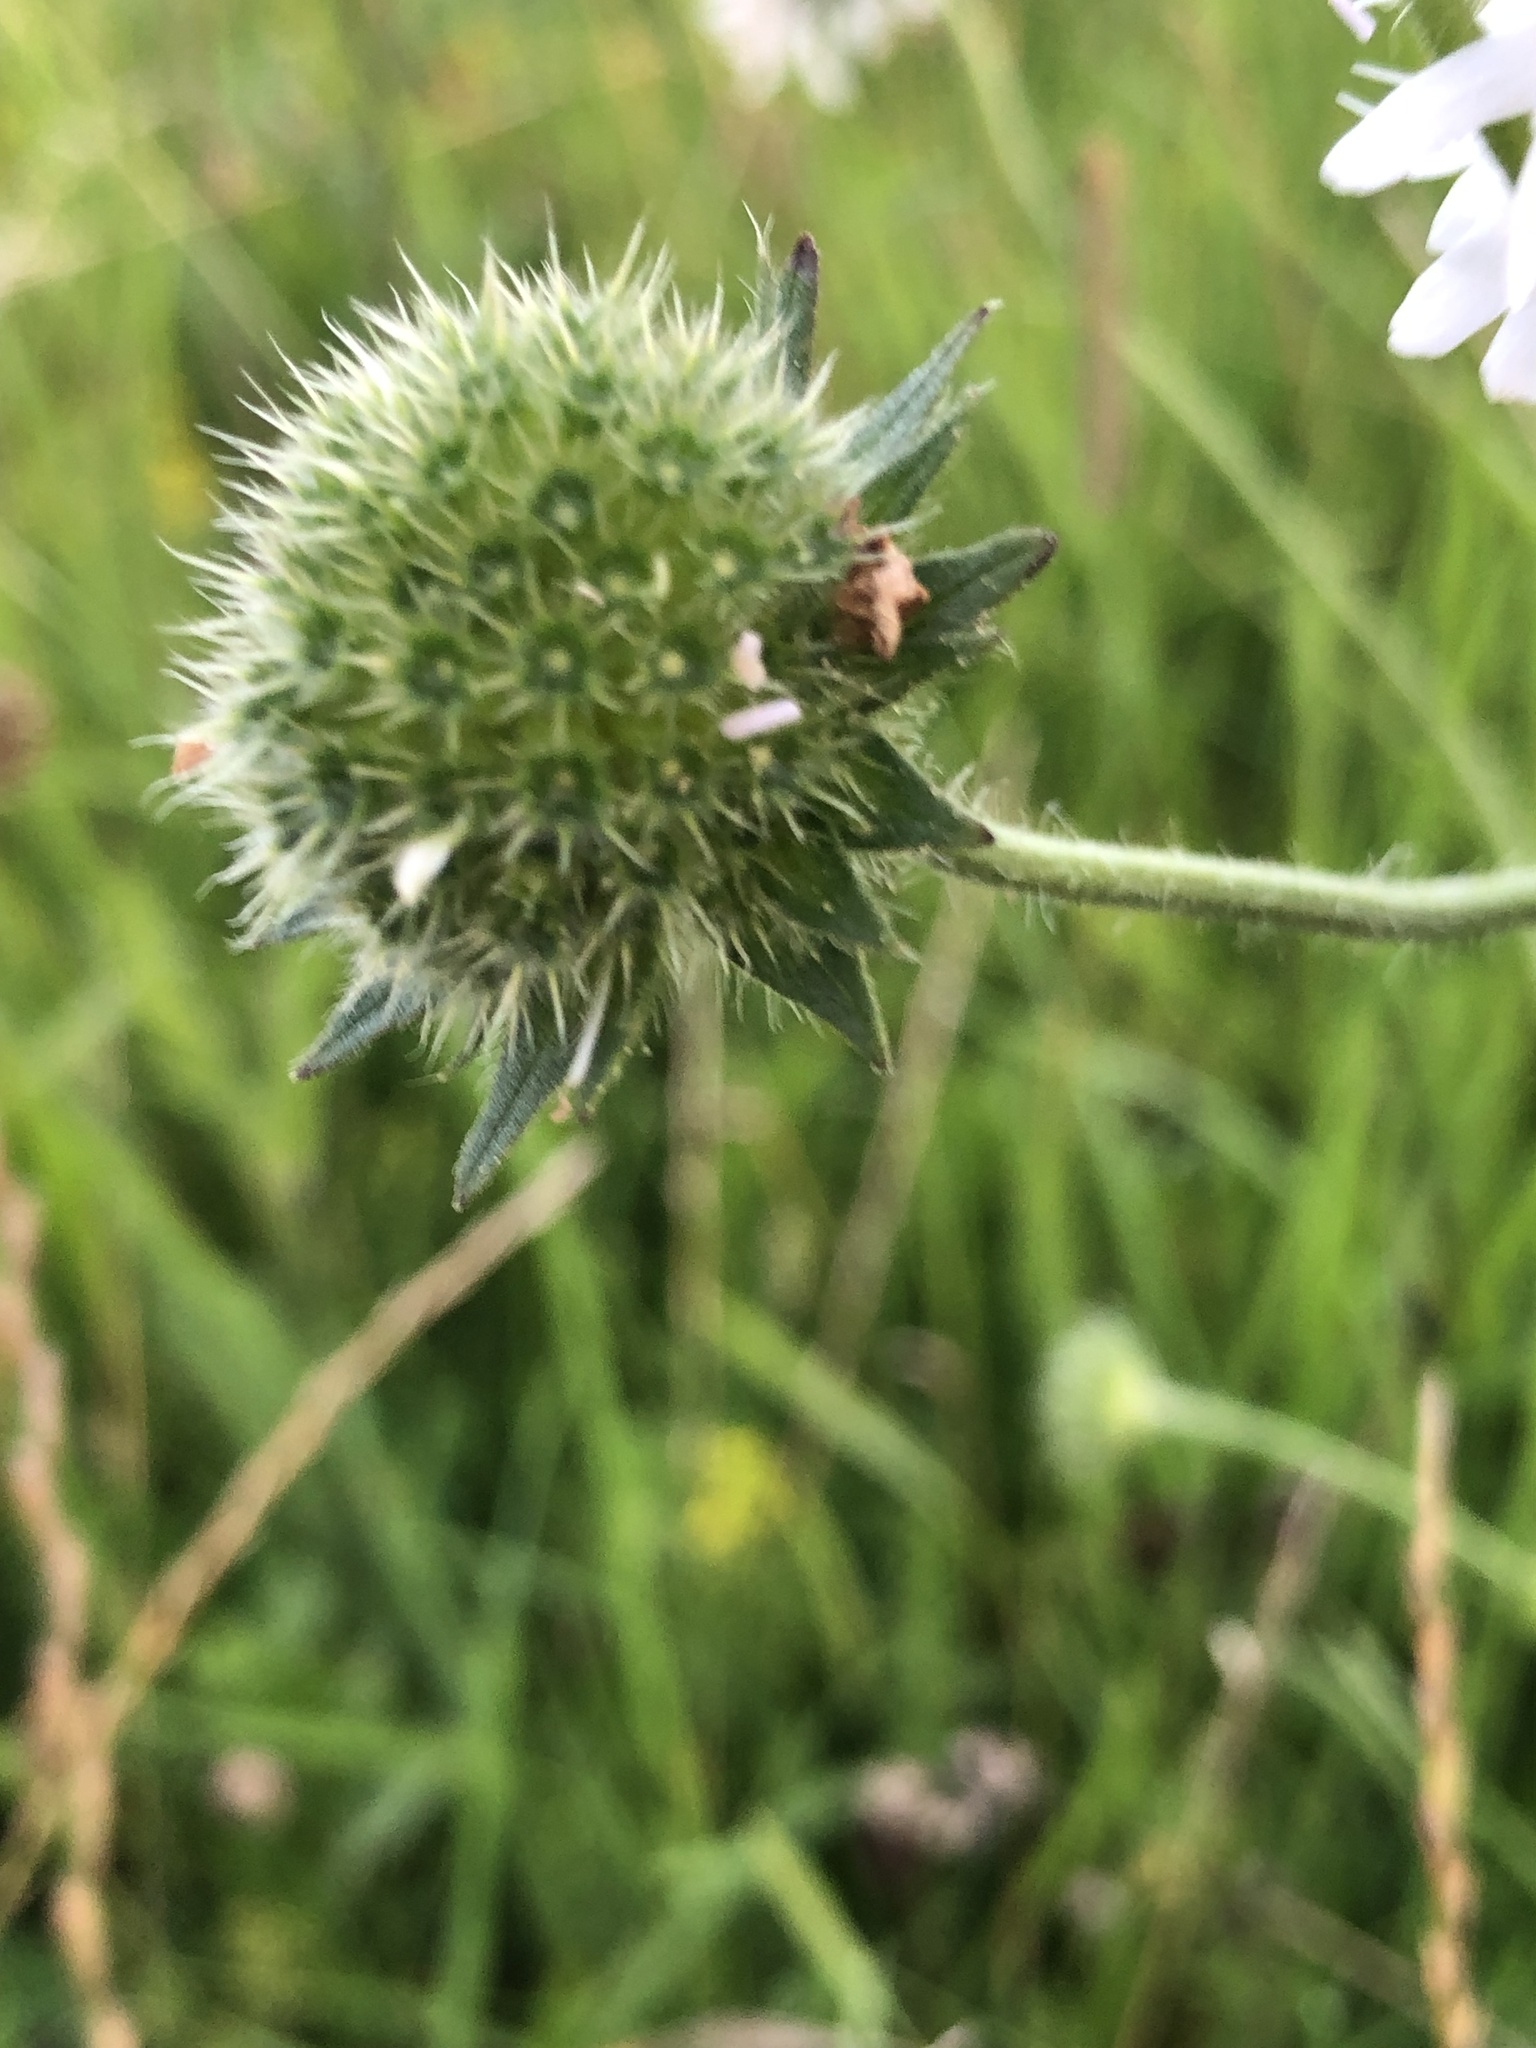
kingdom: Plantae
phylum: Tracheophyta
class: Magnoliopsida
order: Dipsacales
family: Caprifoliaceae
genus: Knautia
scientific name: Knautia arvensis
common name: Field scabiosa
